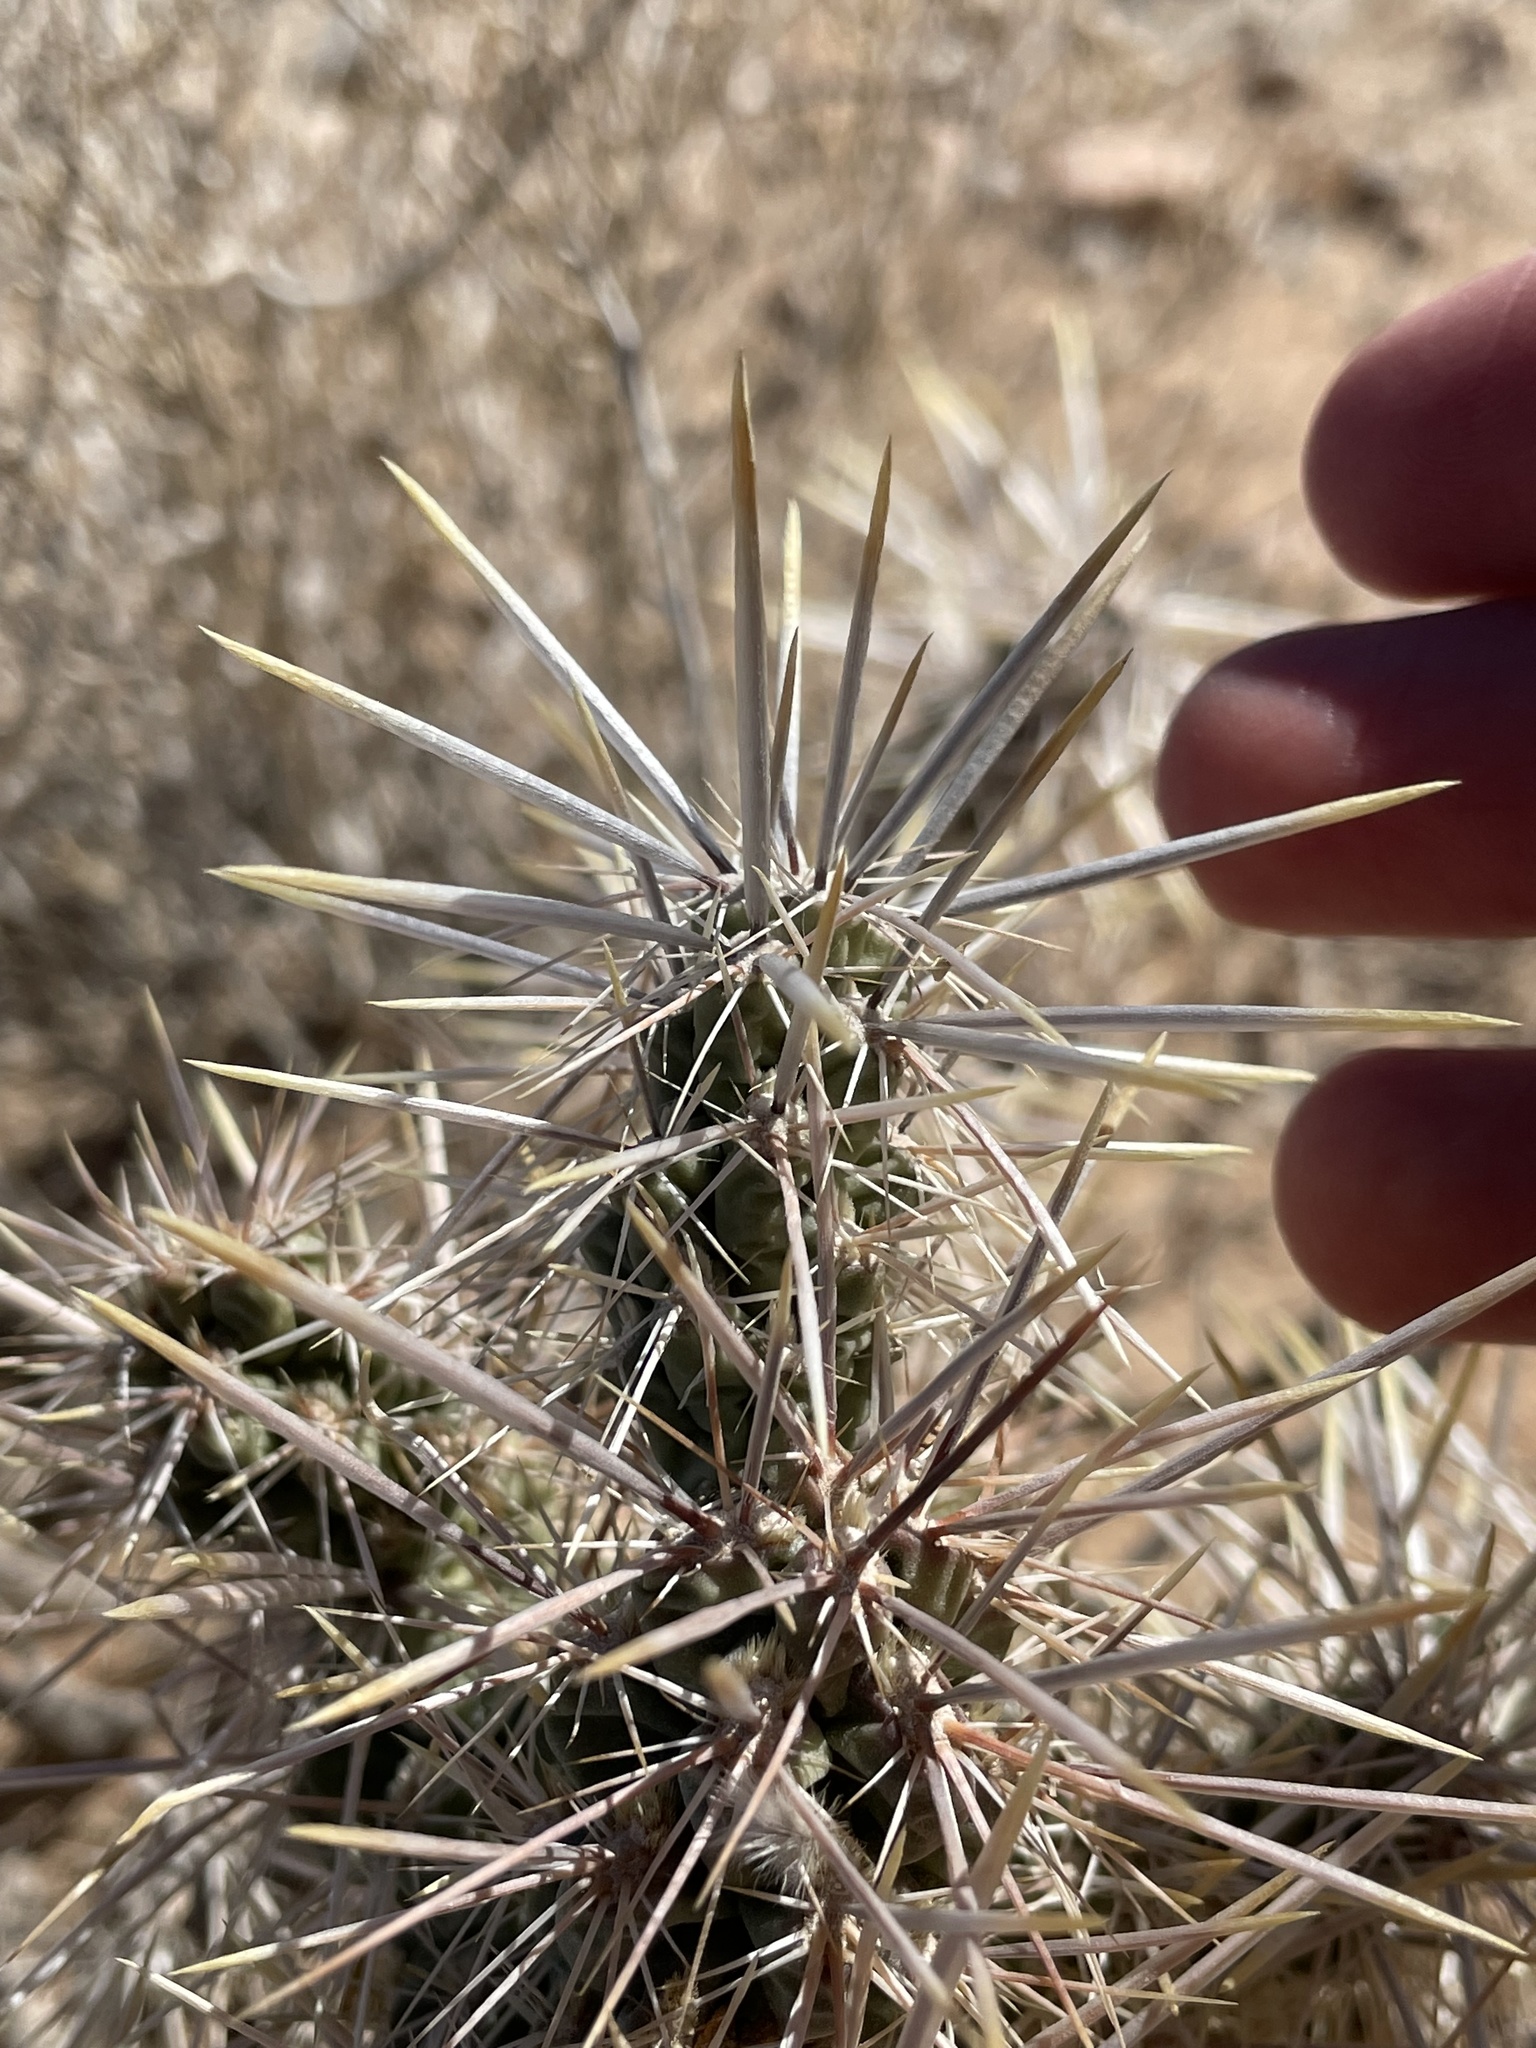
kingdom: Plantae
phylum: Tracheophyta
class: Magnoliopsida
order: Caryophyllales
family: Cactaceae
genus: Cylindropuntia
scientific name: Cylindropuntia echinocarpa
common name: Ground cholla
